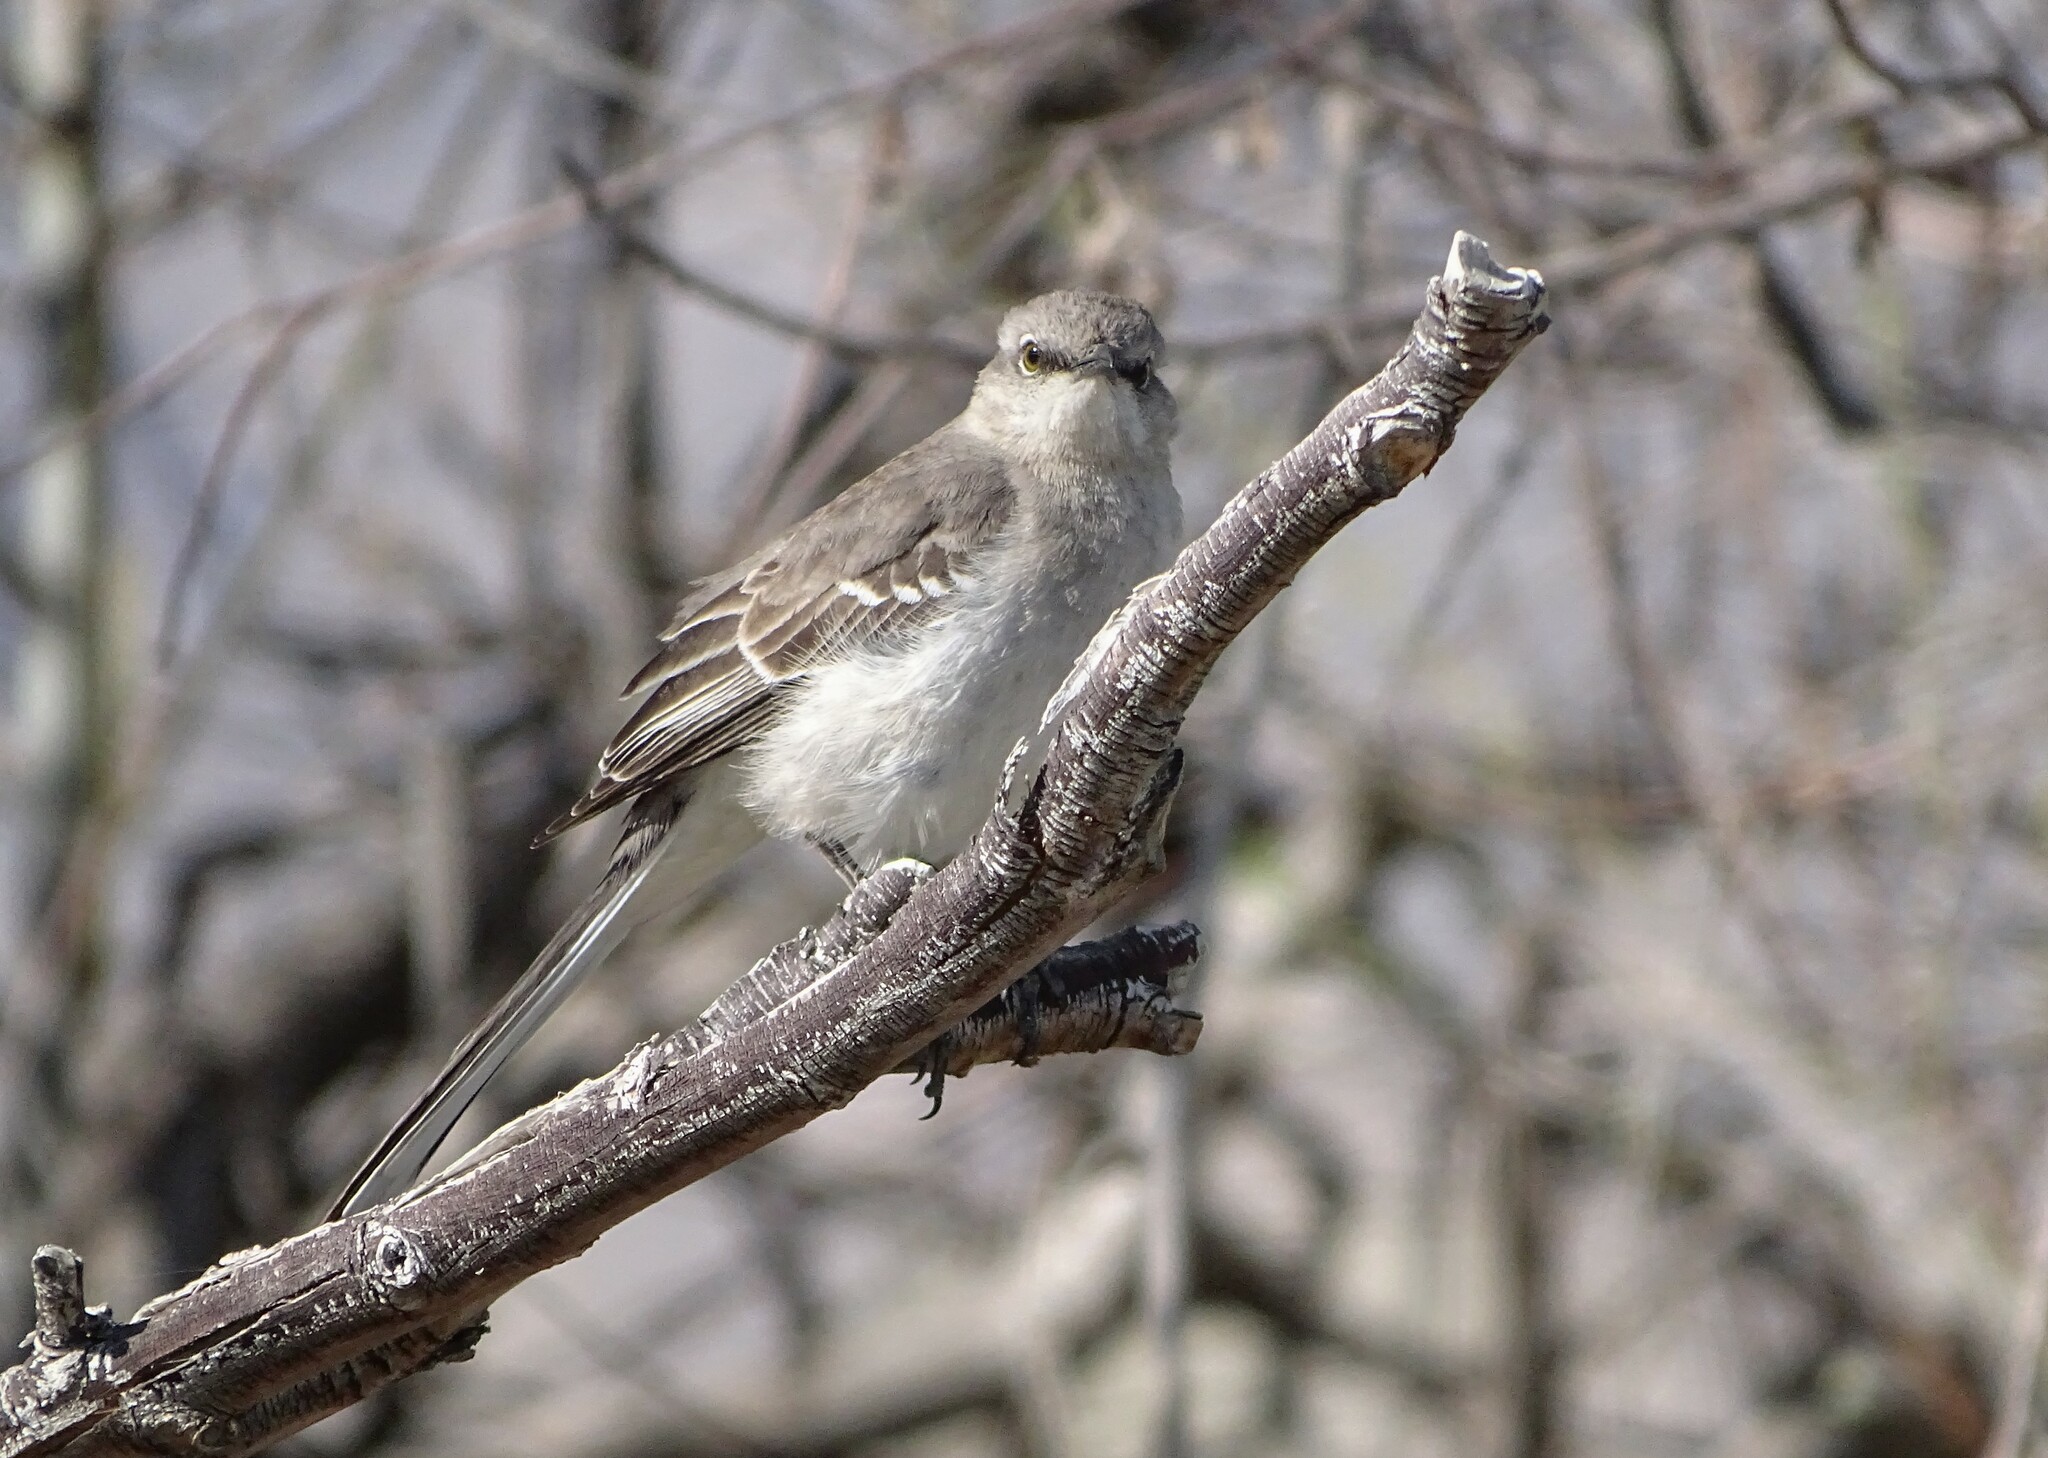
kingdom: Animalia
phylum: Chordata
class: Aves
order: Passeriformes
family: Mimidae
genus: Mimus
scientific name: Mimus polyglottos
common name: Northern mockingbird
